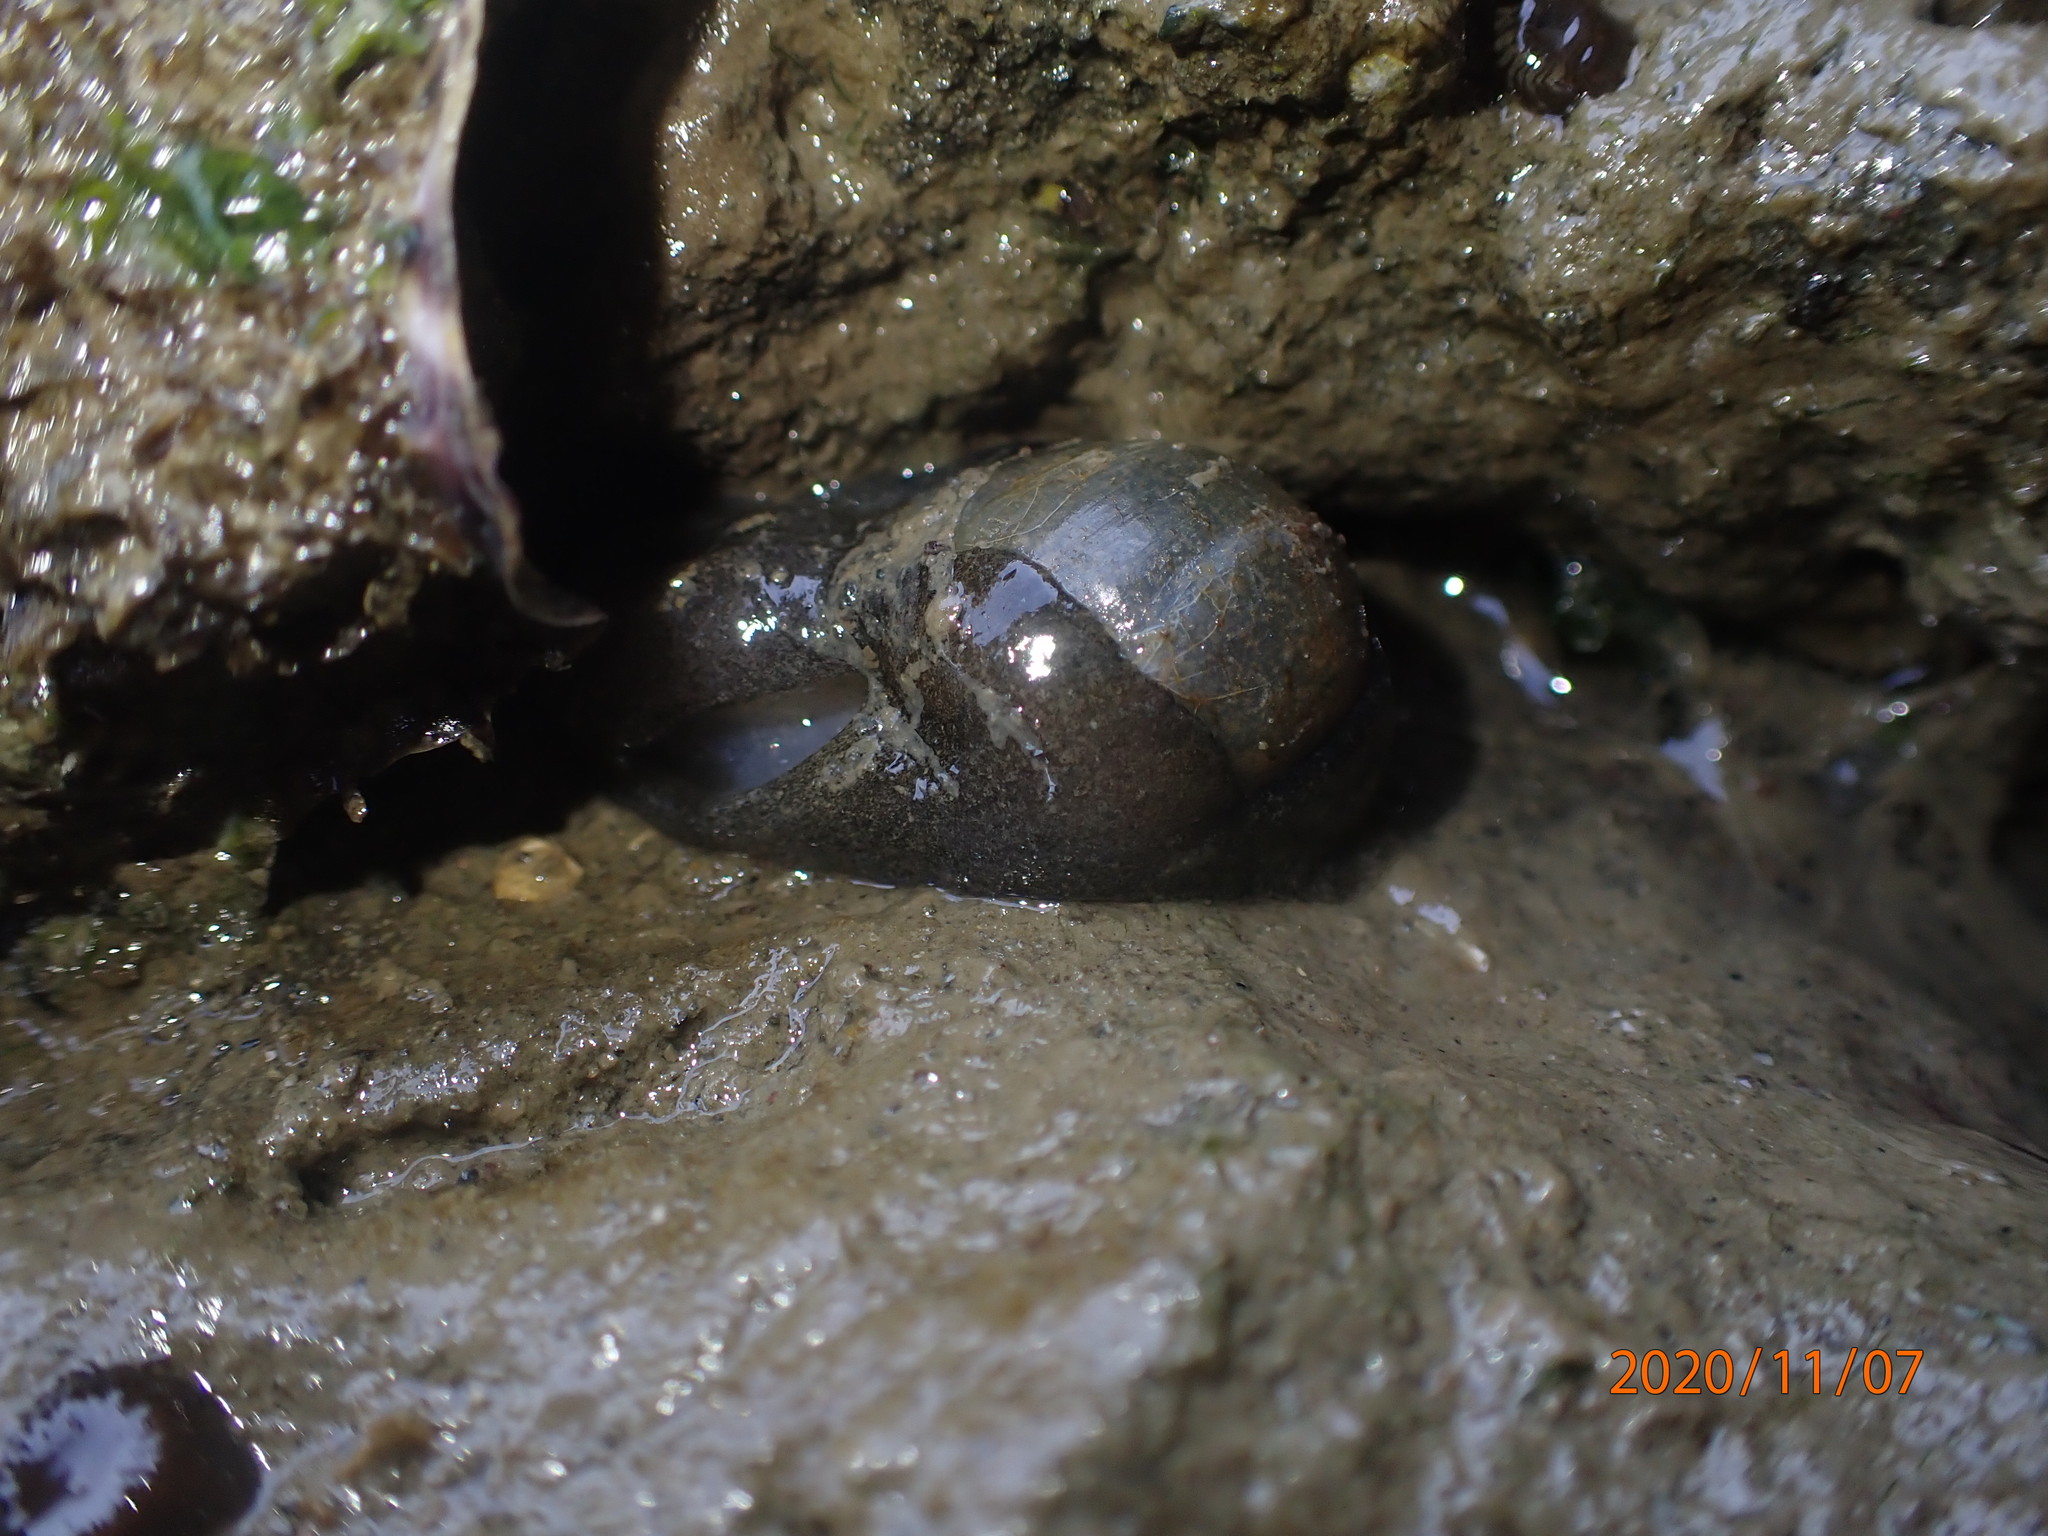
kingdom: Animalia
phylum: Mollusca
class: Gastropoda
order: Cephalaspidea
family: Haminoeidae
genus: Papawera
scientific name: Papawera zelandiae
